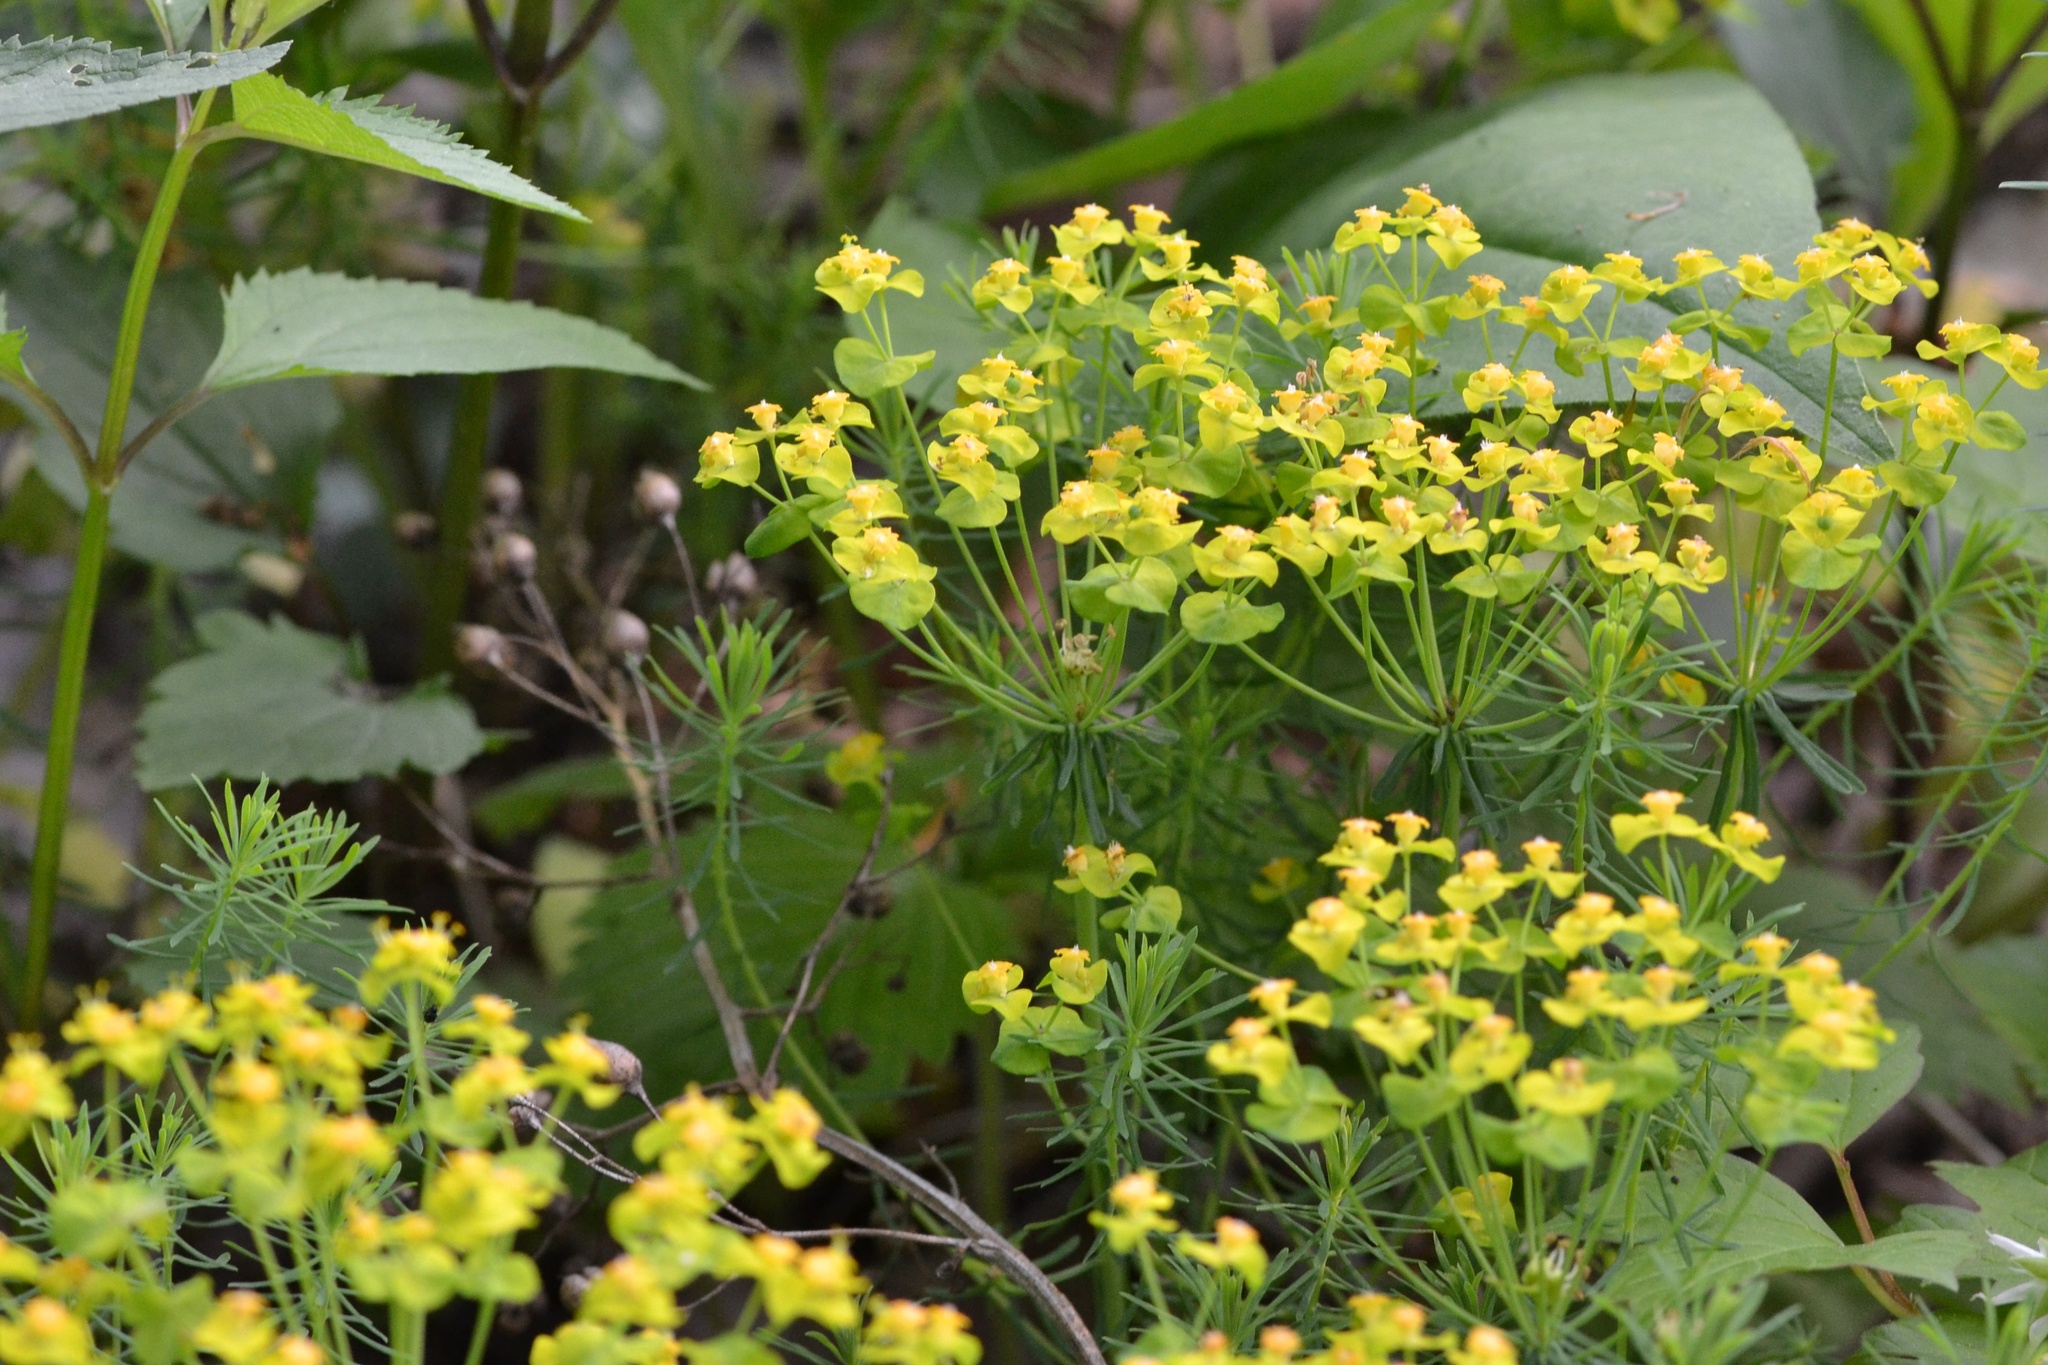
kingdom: Plantae
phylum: Tracheophyta
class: Magnoliopsida
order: Malpighiales
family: Euphorbiaceae
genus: Euphorbia
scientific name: Euphorbia cyparissias
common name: Cypress spurge
